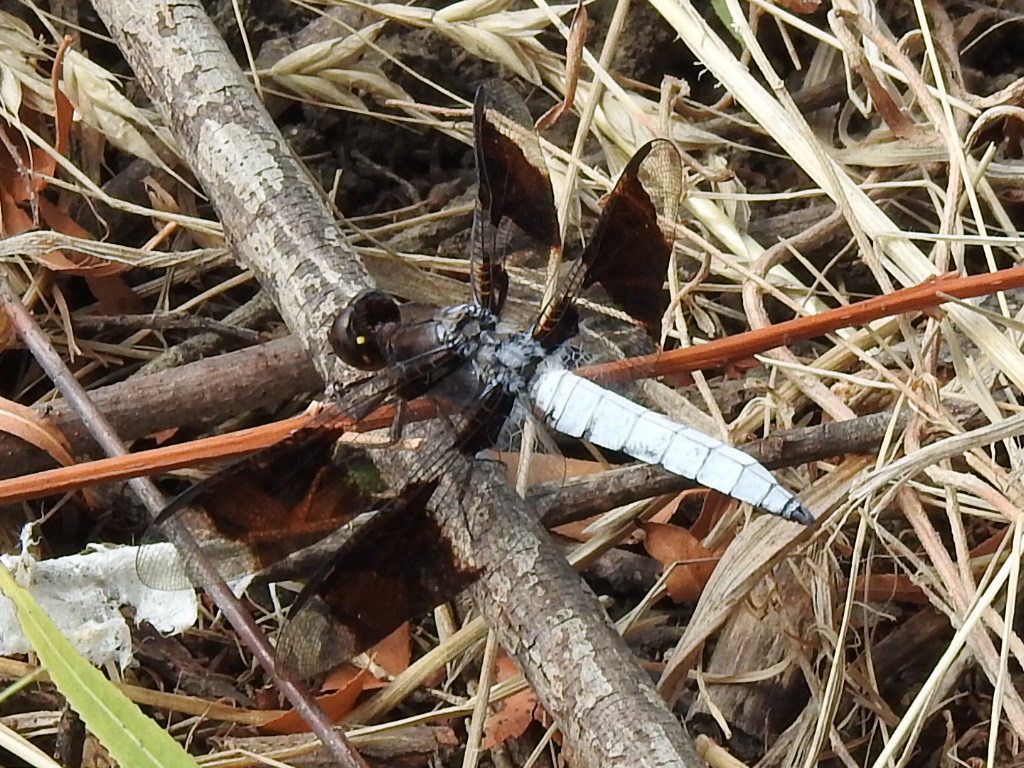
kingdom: Animalia
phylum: Arthropoda
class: Insecta
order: Odonata
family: Libellulidae
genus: Plathemis
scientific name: Plathemis lydia
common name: Common whitetail
